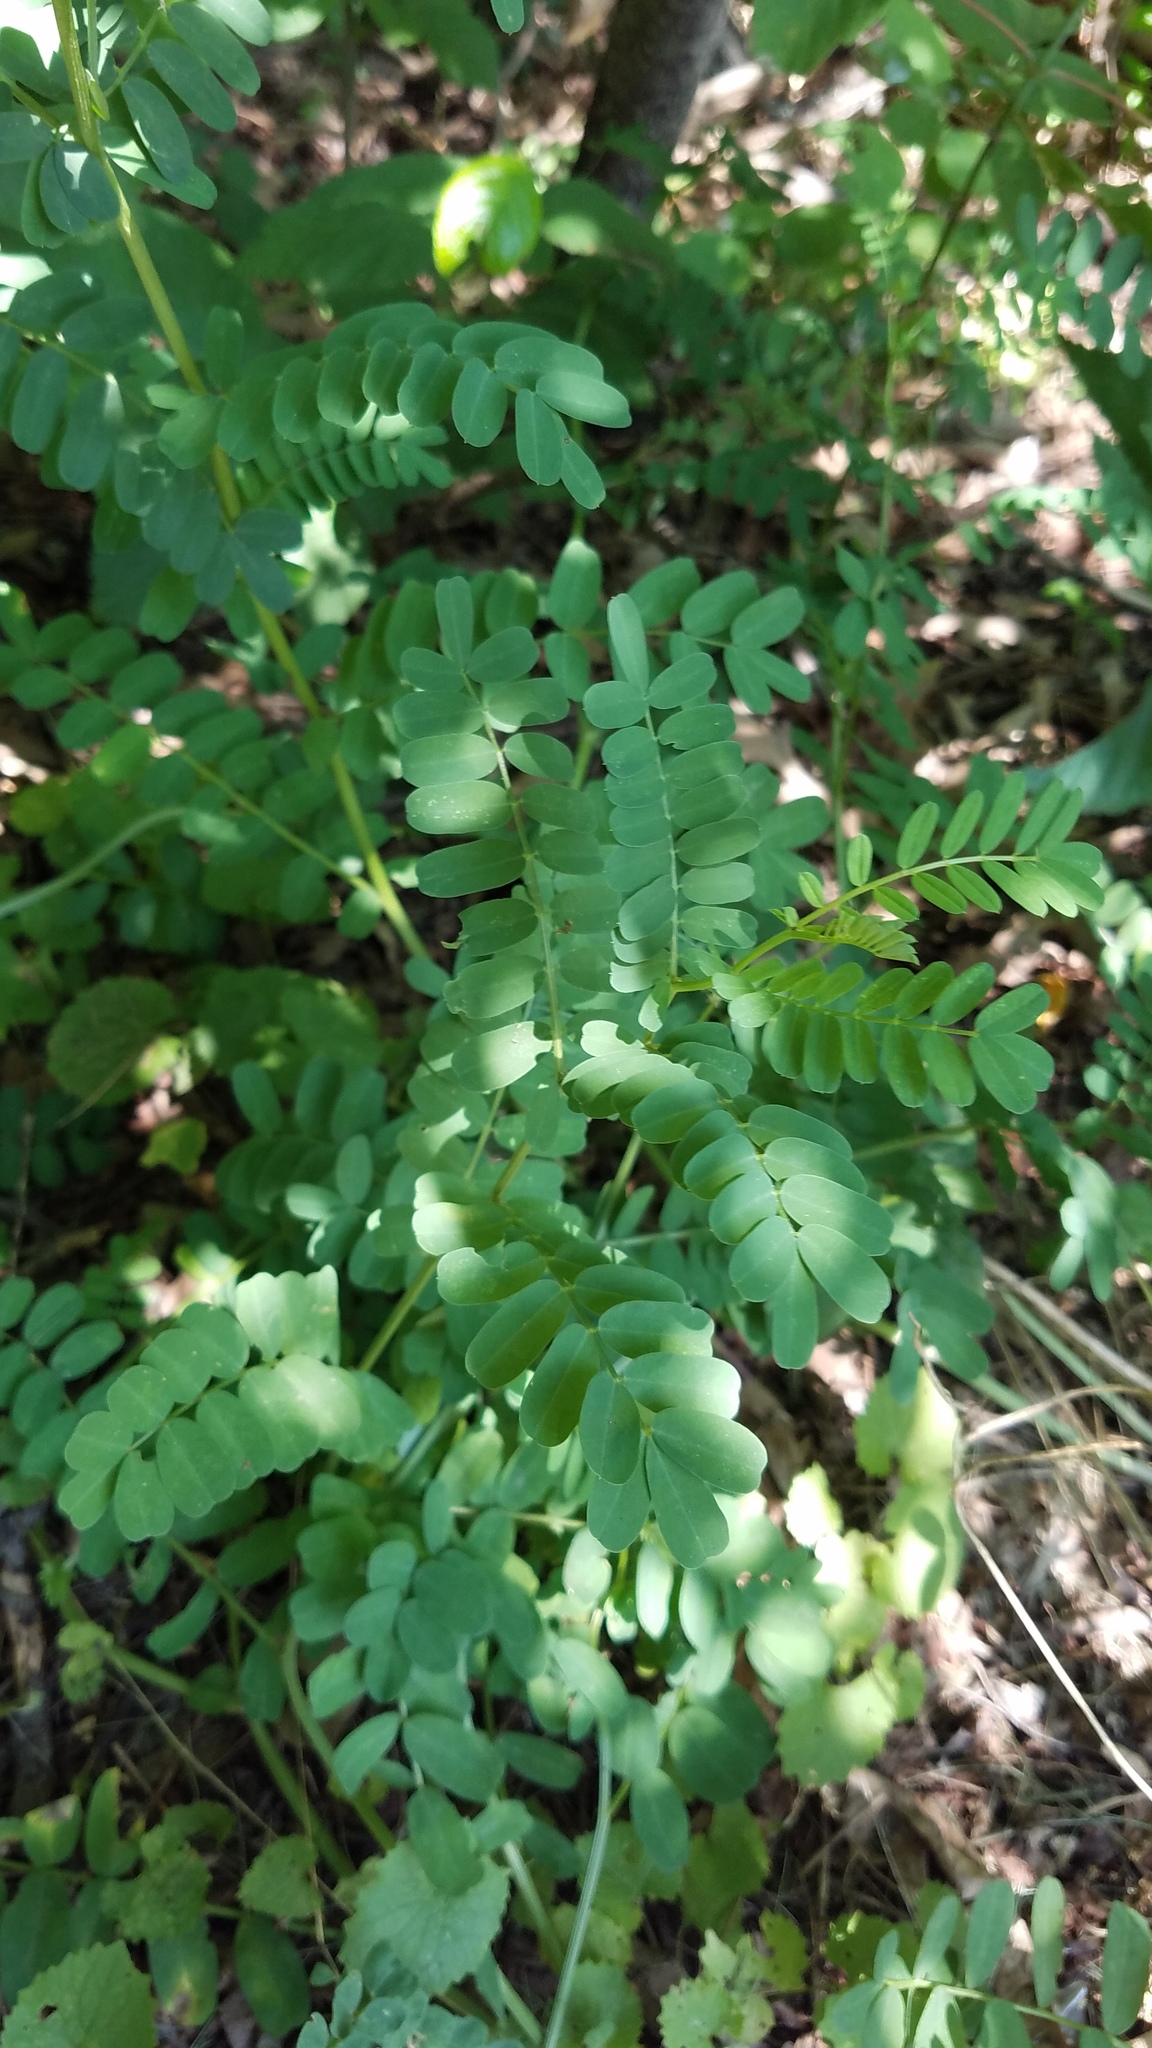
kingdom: Plantae
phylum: Tracheophyta
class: Magnoliopsida
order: Fabales
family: Fabaceae
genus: Coronilla
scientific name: Coronilla varia
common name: Crownvetch
